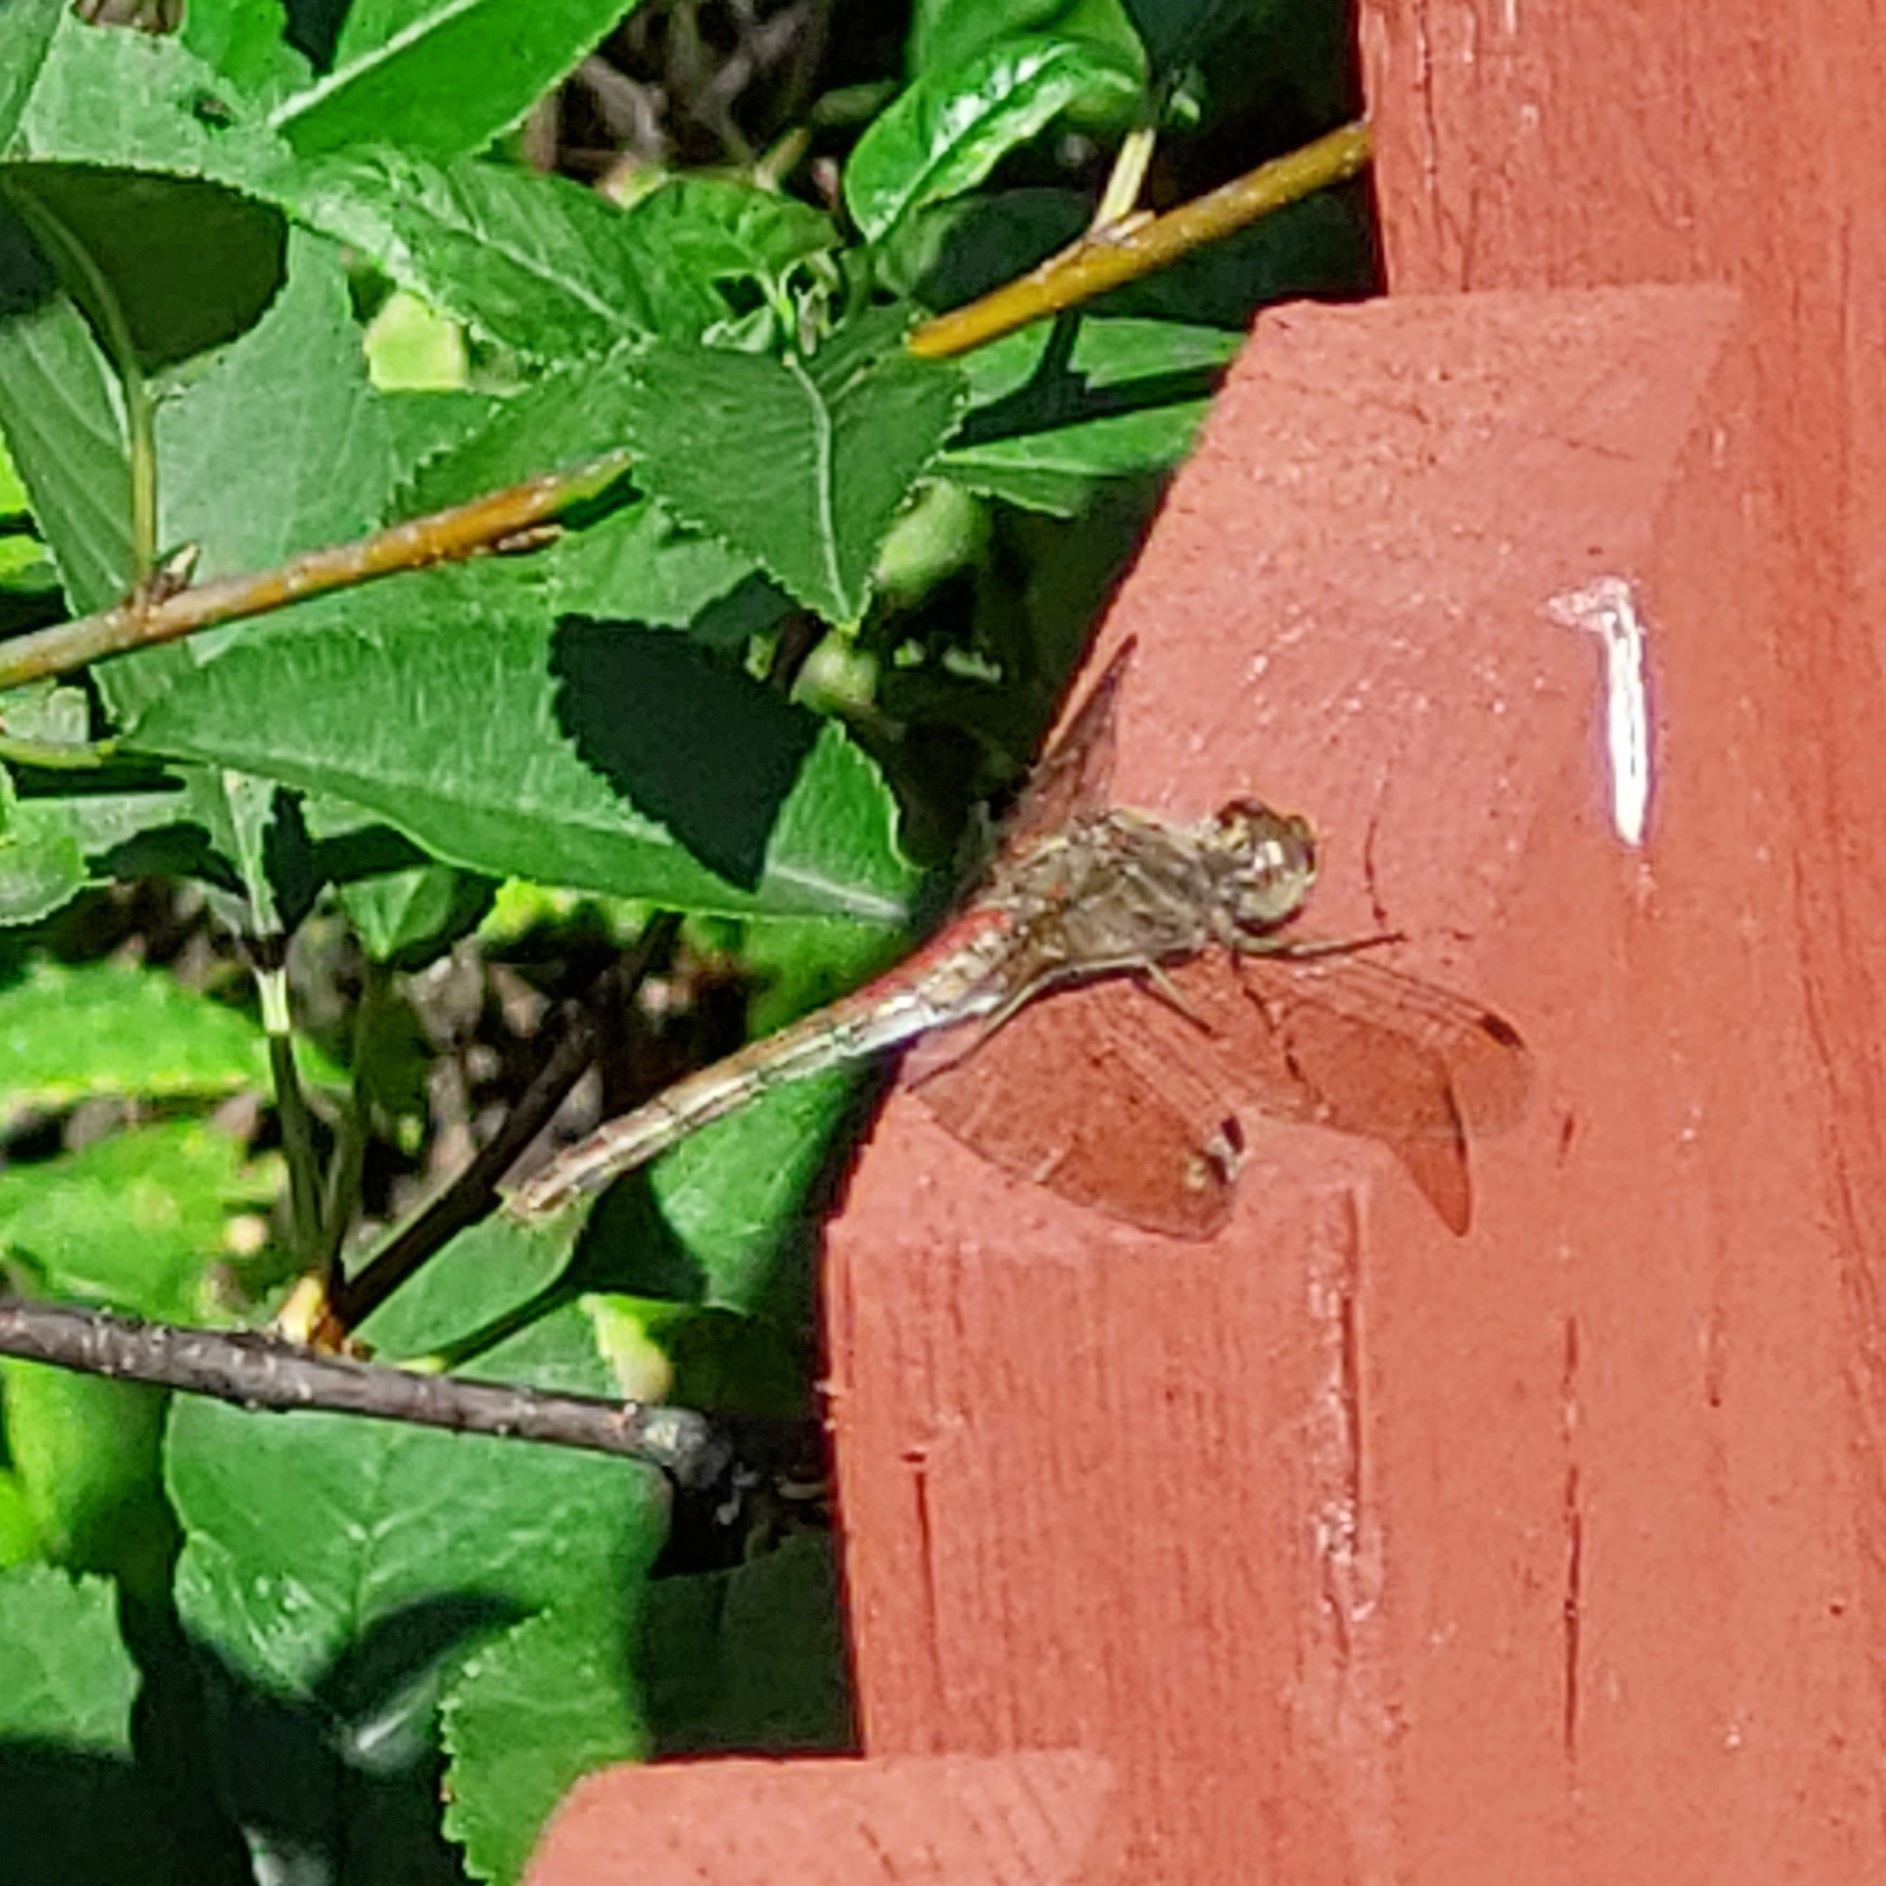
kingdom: Animalia
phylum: Arthropoda
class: Insecta
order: Odonata
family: Libellulidae
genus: Sympetrum
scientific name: Sympetrum vulgatum
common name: Vagrant darter
